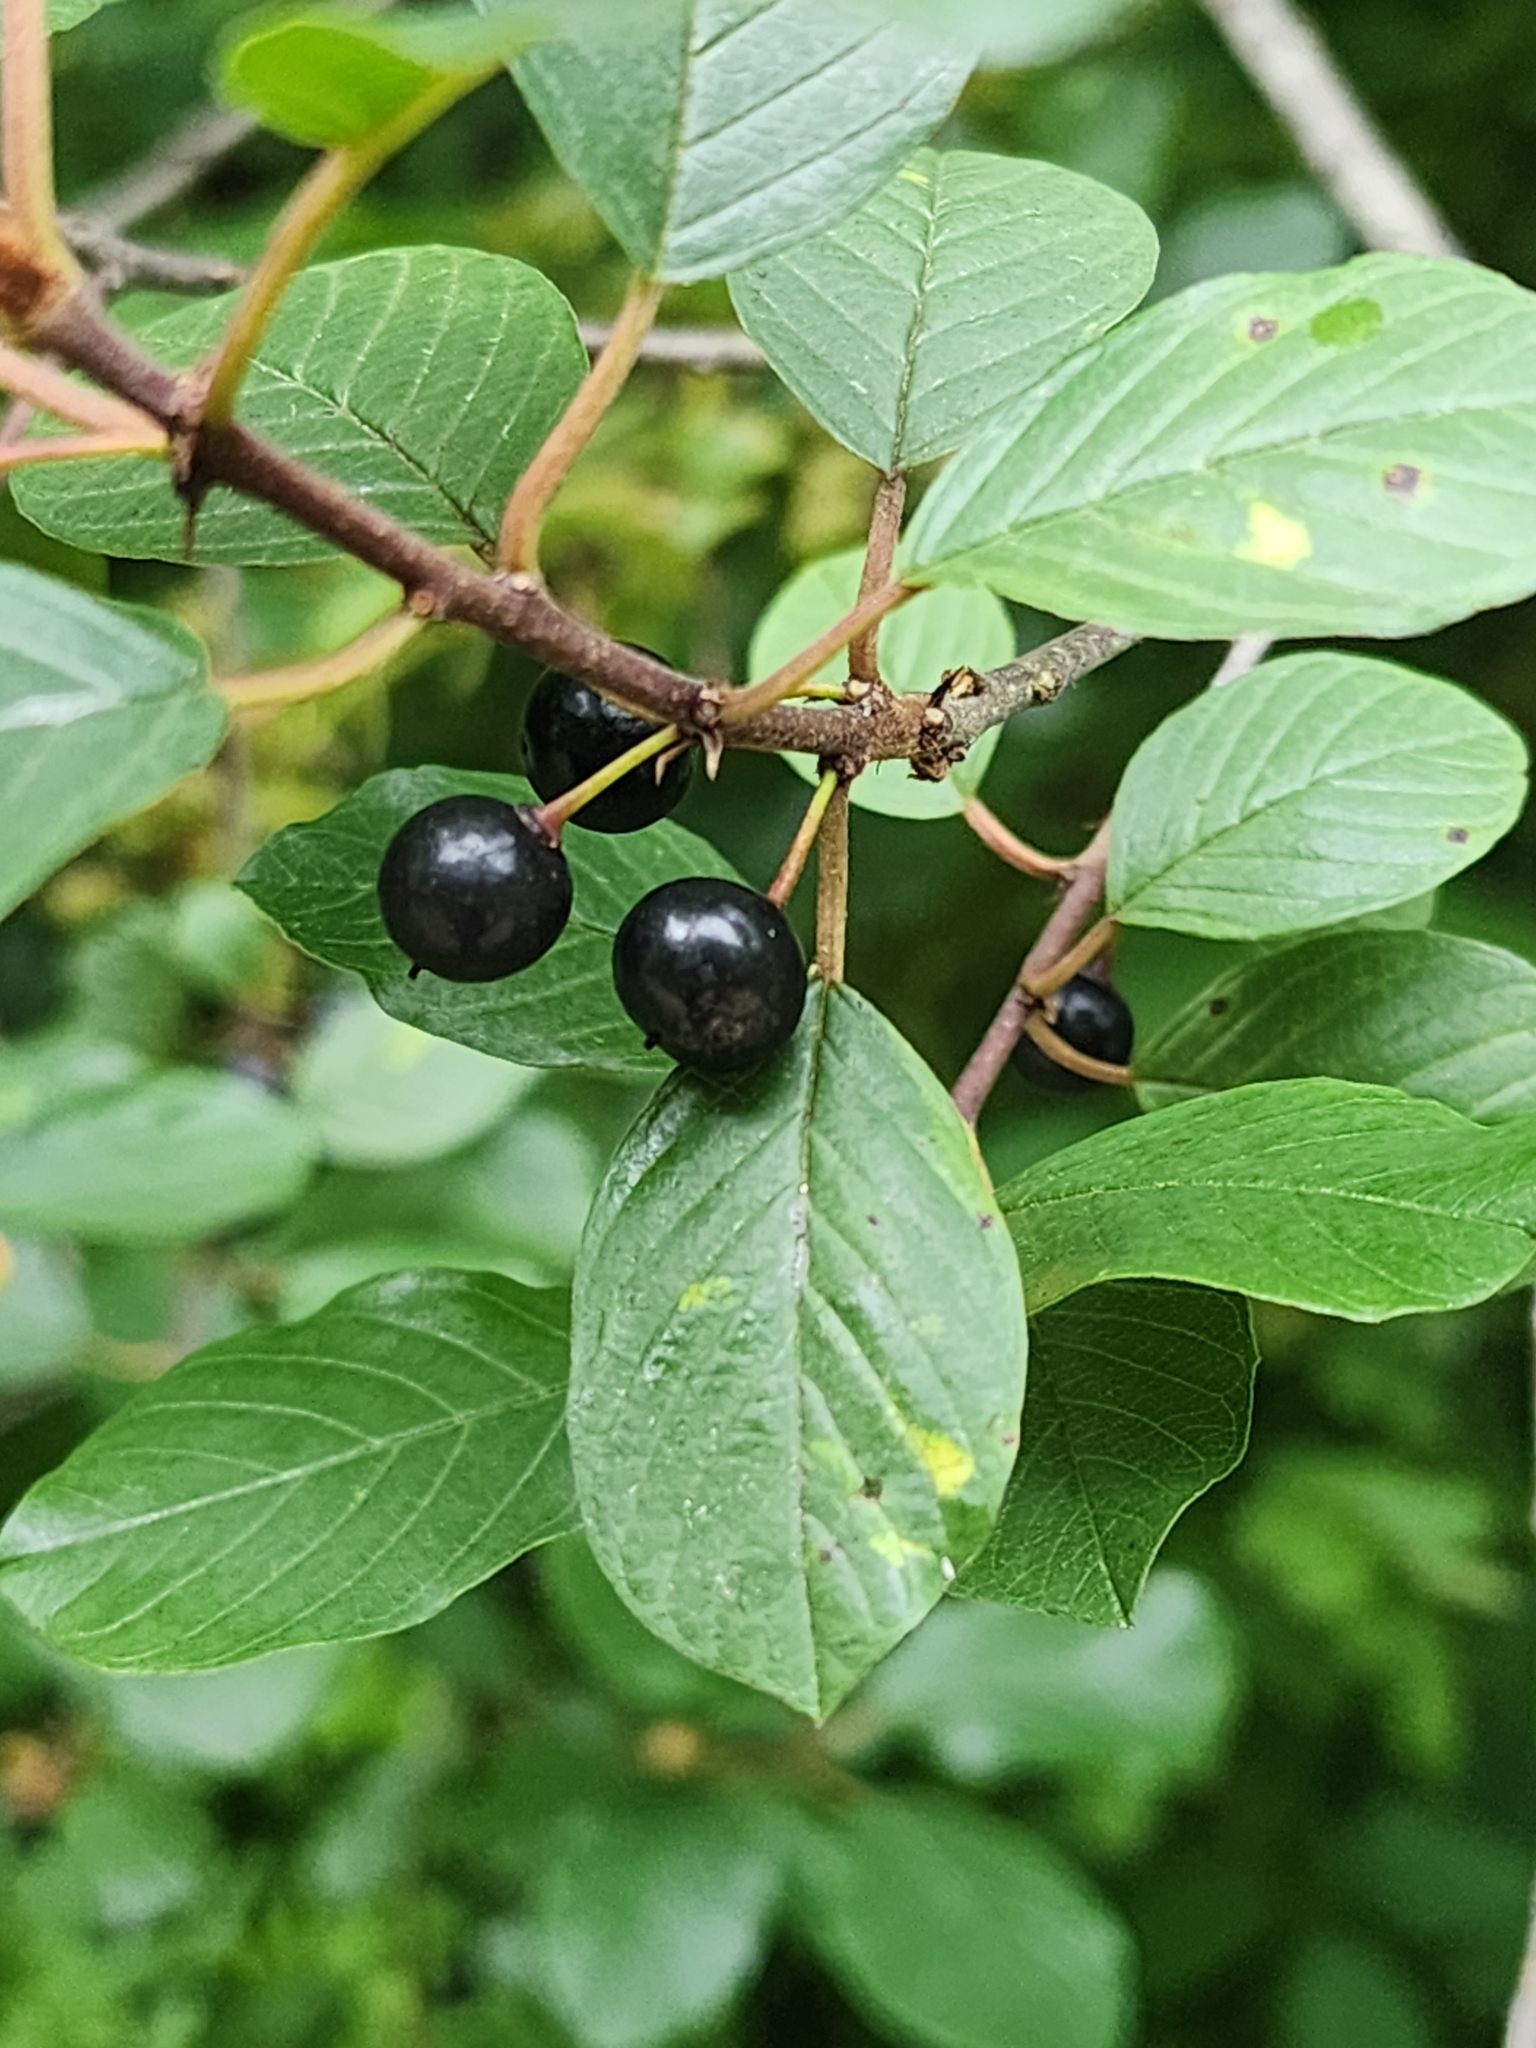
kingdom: Plantae
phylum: Tracheophyta
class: Magnoliopsida
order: Rosales
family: Rhamnaceae
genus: Frangula
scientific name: Frangula alnus
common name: Alder buckthorn
